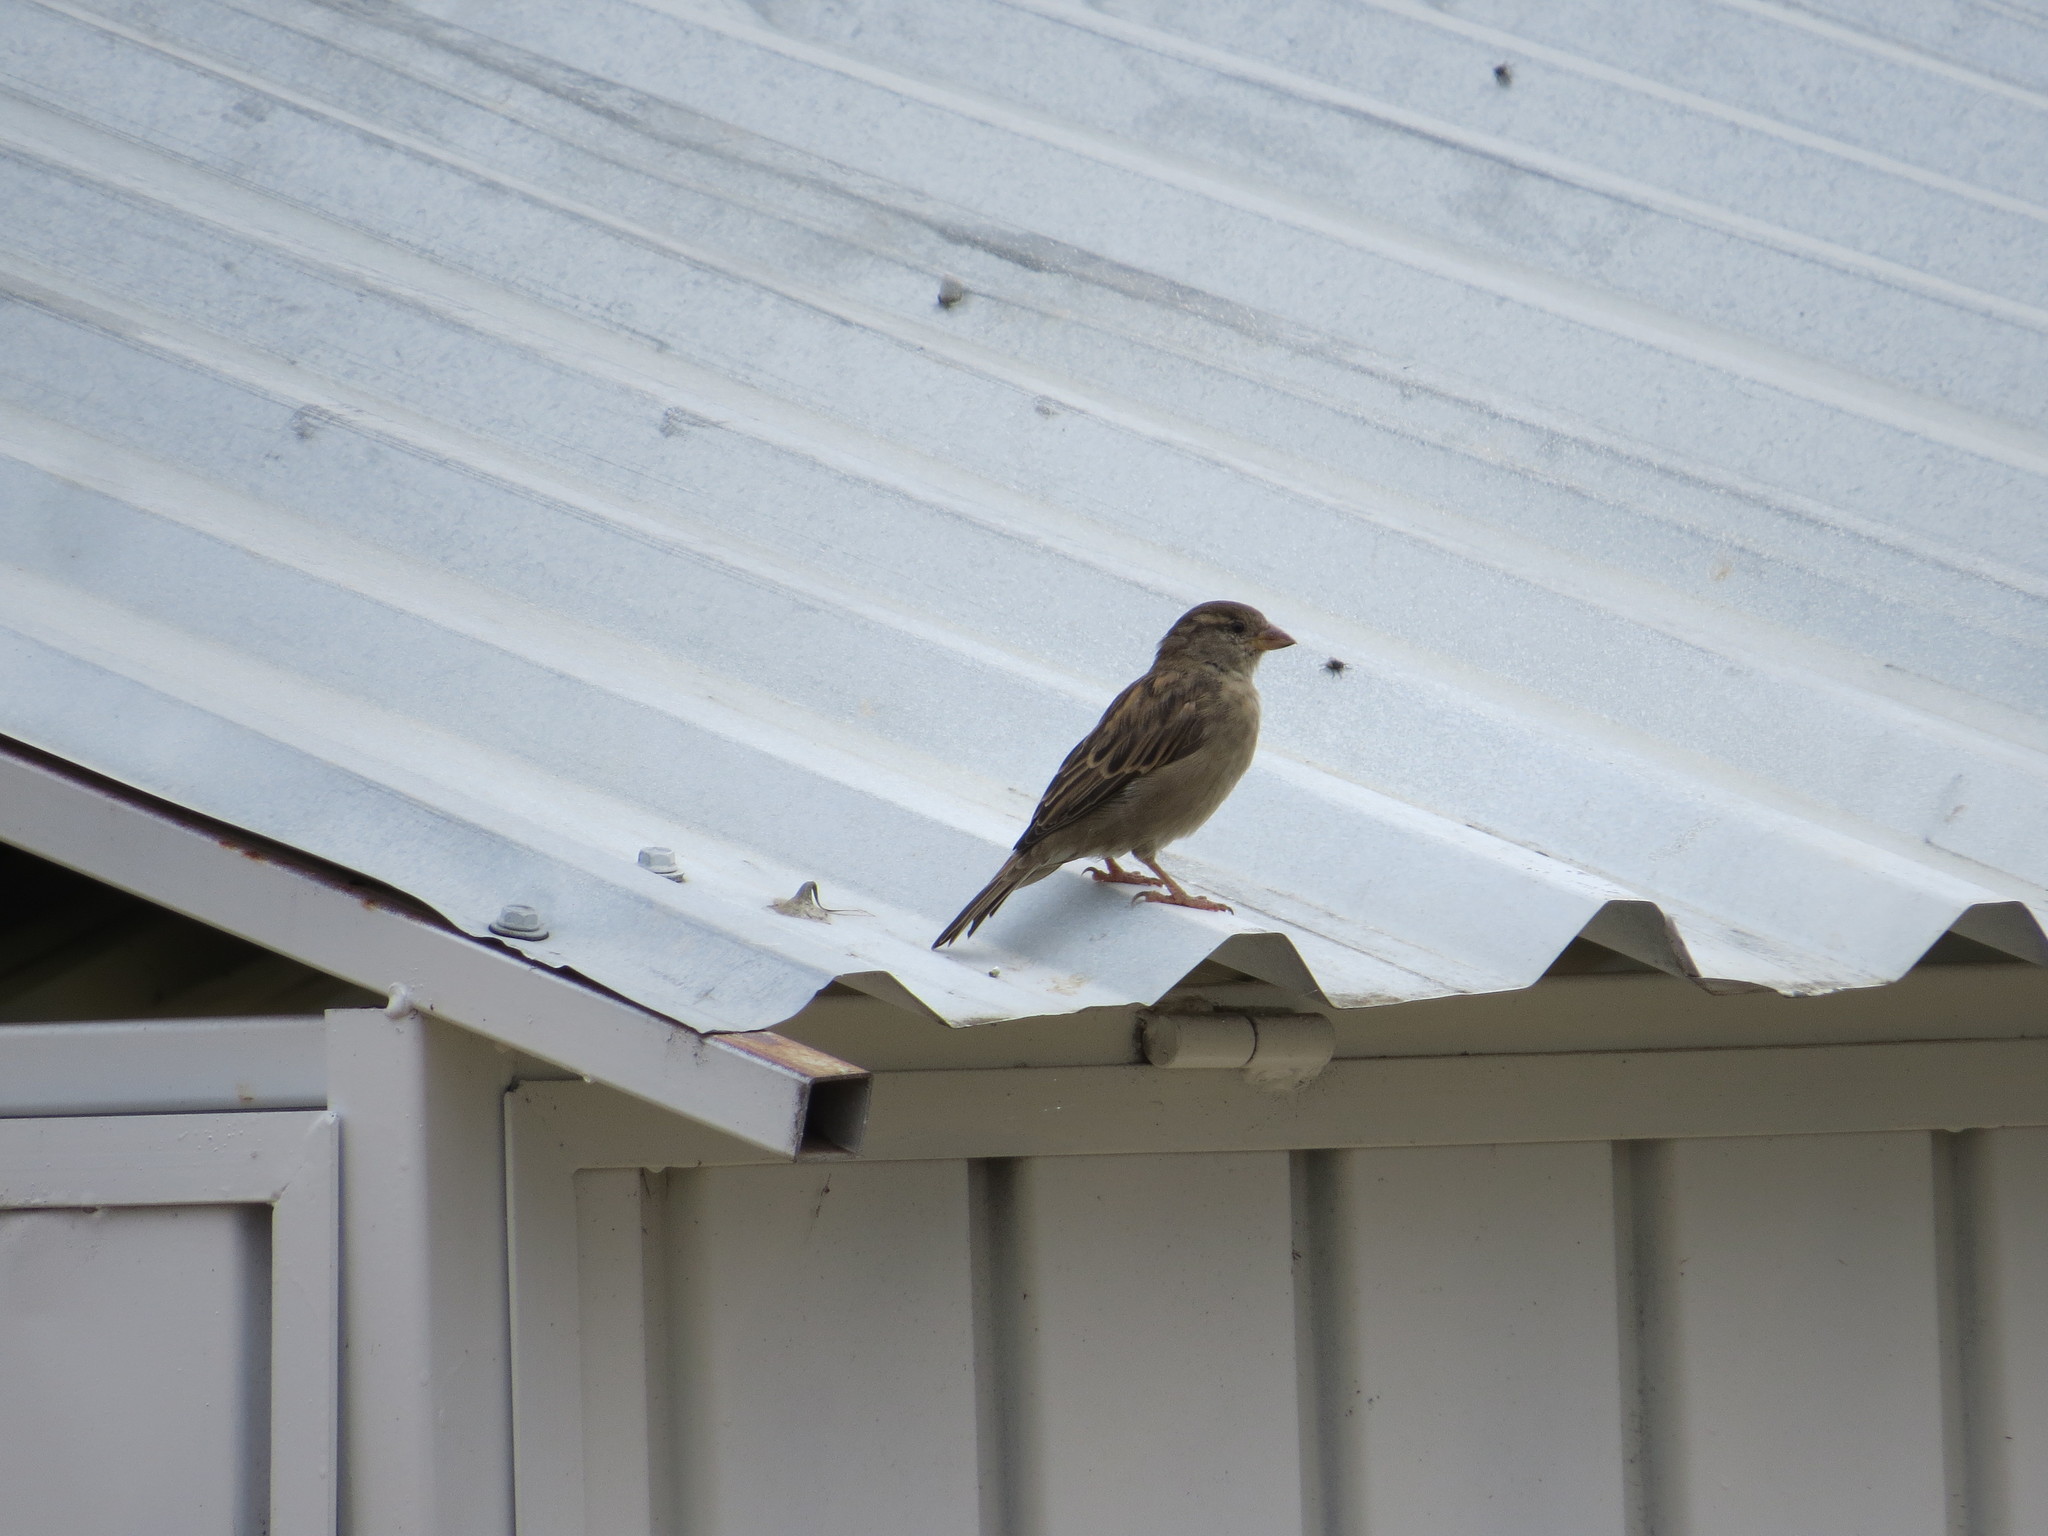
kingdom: Animalia
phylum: Chordata
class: Aves
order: Passeriformes
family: Passeridae
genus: Passer
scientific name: Passer domesticus
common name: House sparrow
